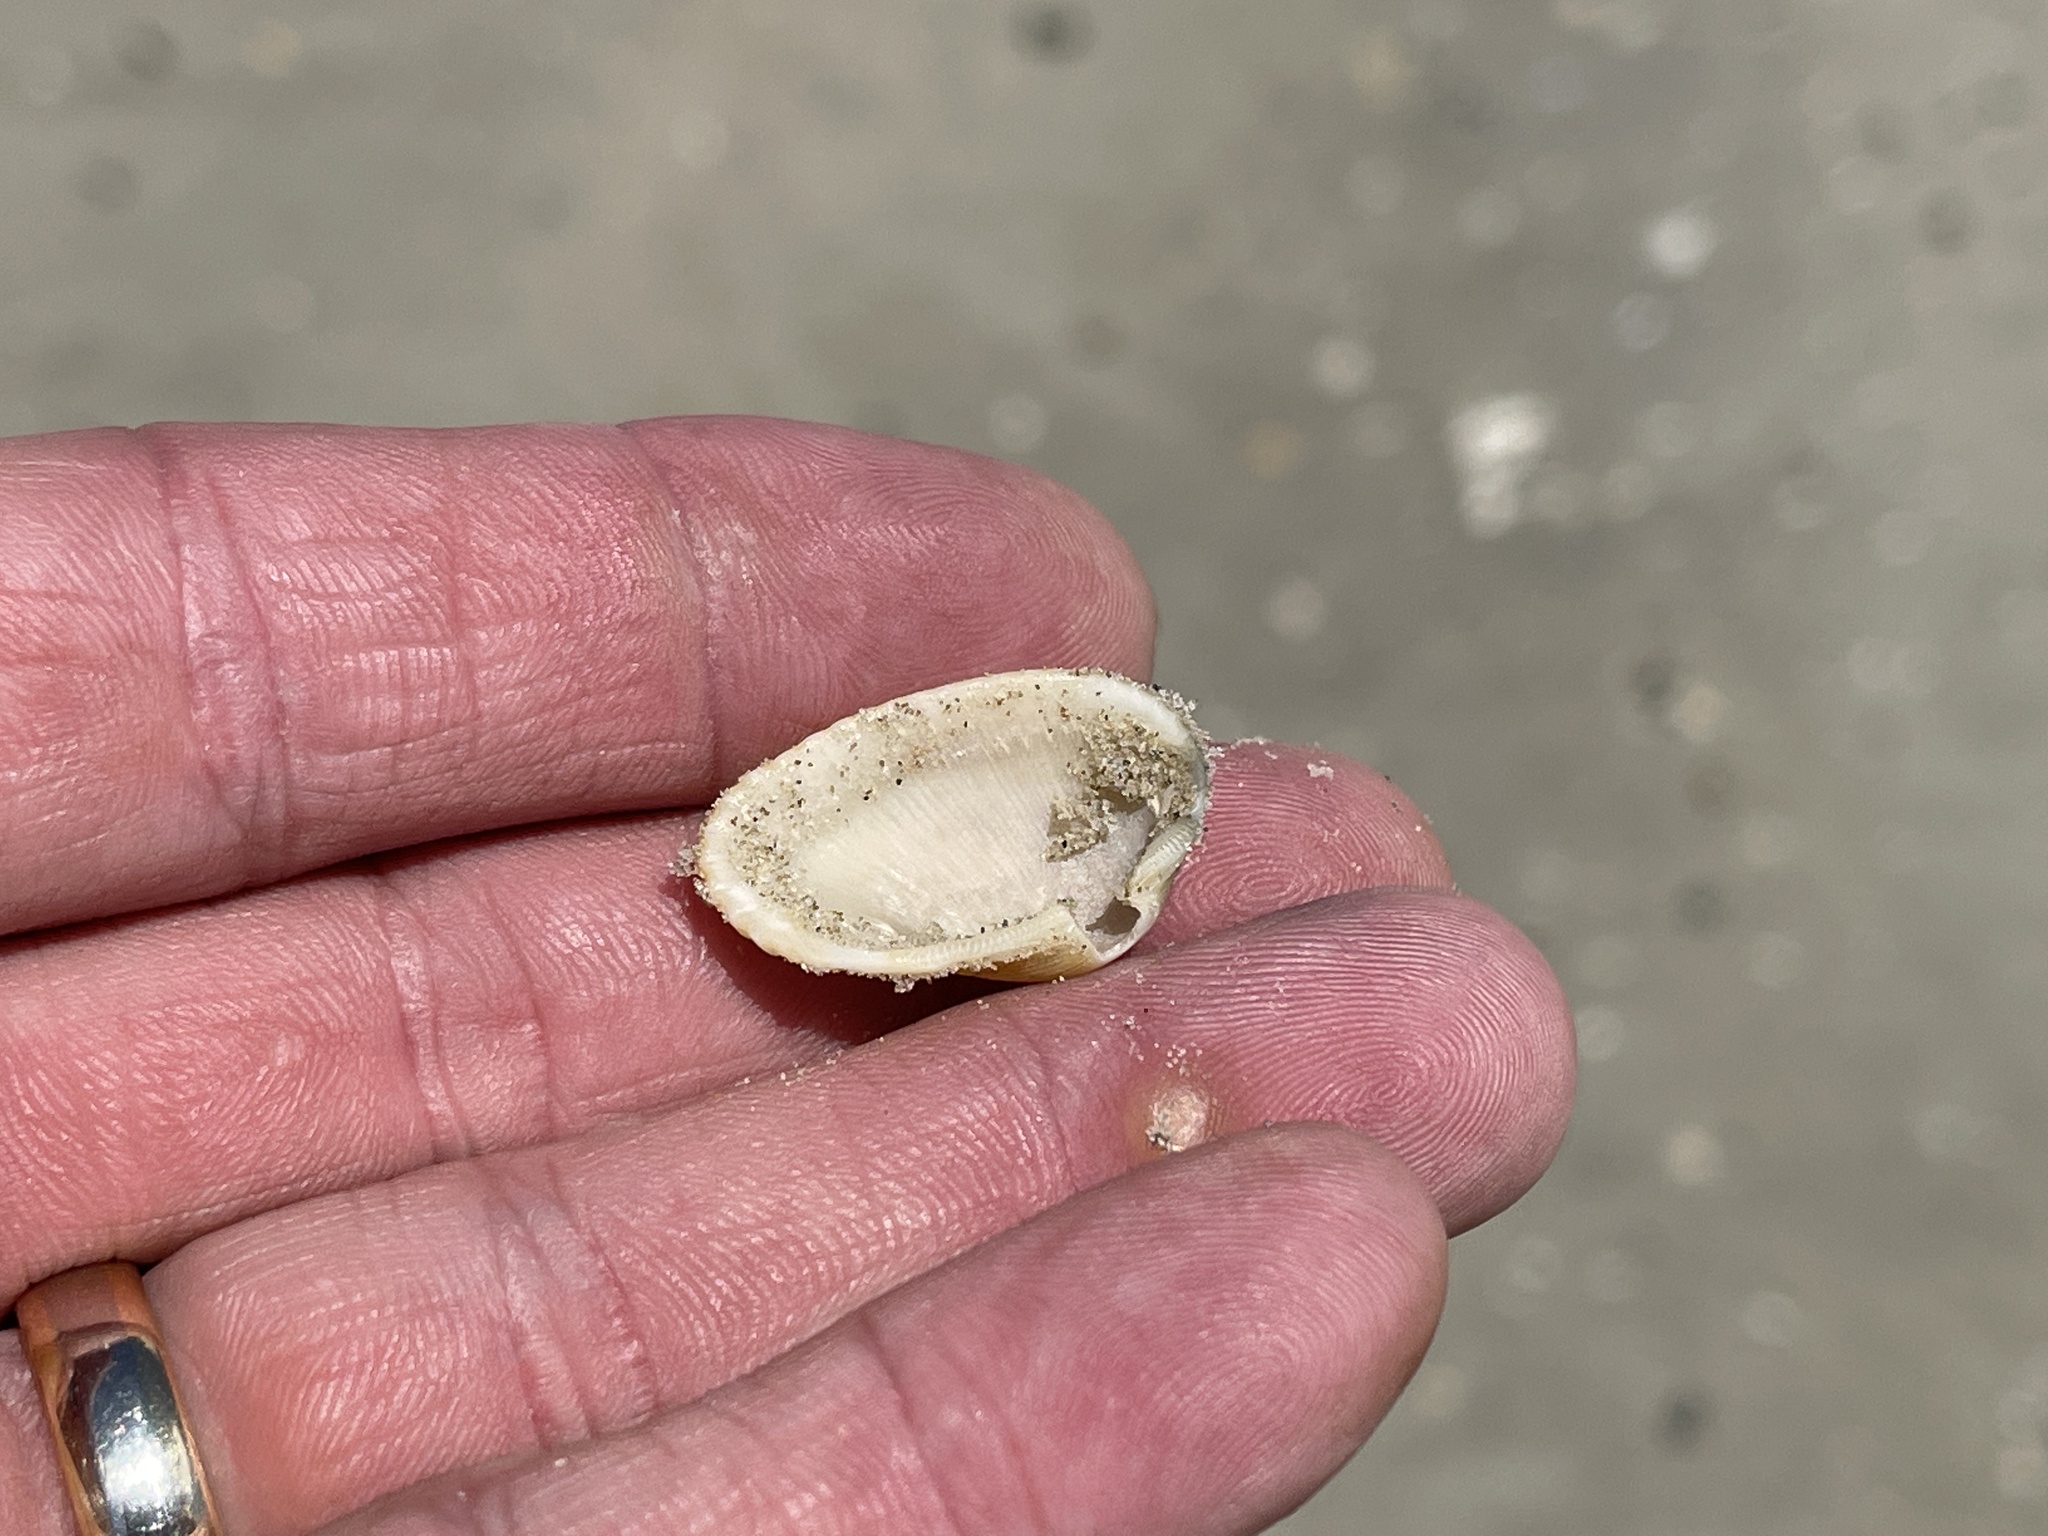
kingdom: Animalia
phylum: Mollusca
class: Bivalvia
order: Arcida
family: Arcidae
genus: Anadara
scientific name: Anadara transversa
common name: Transverse ark
